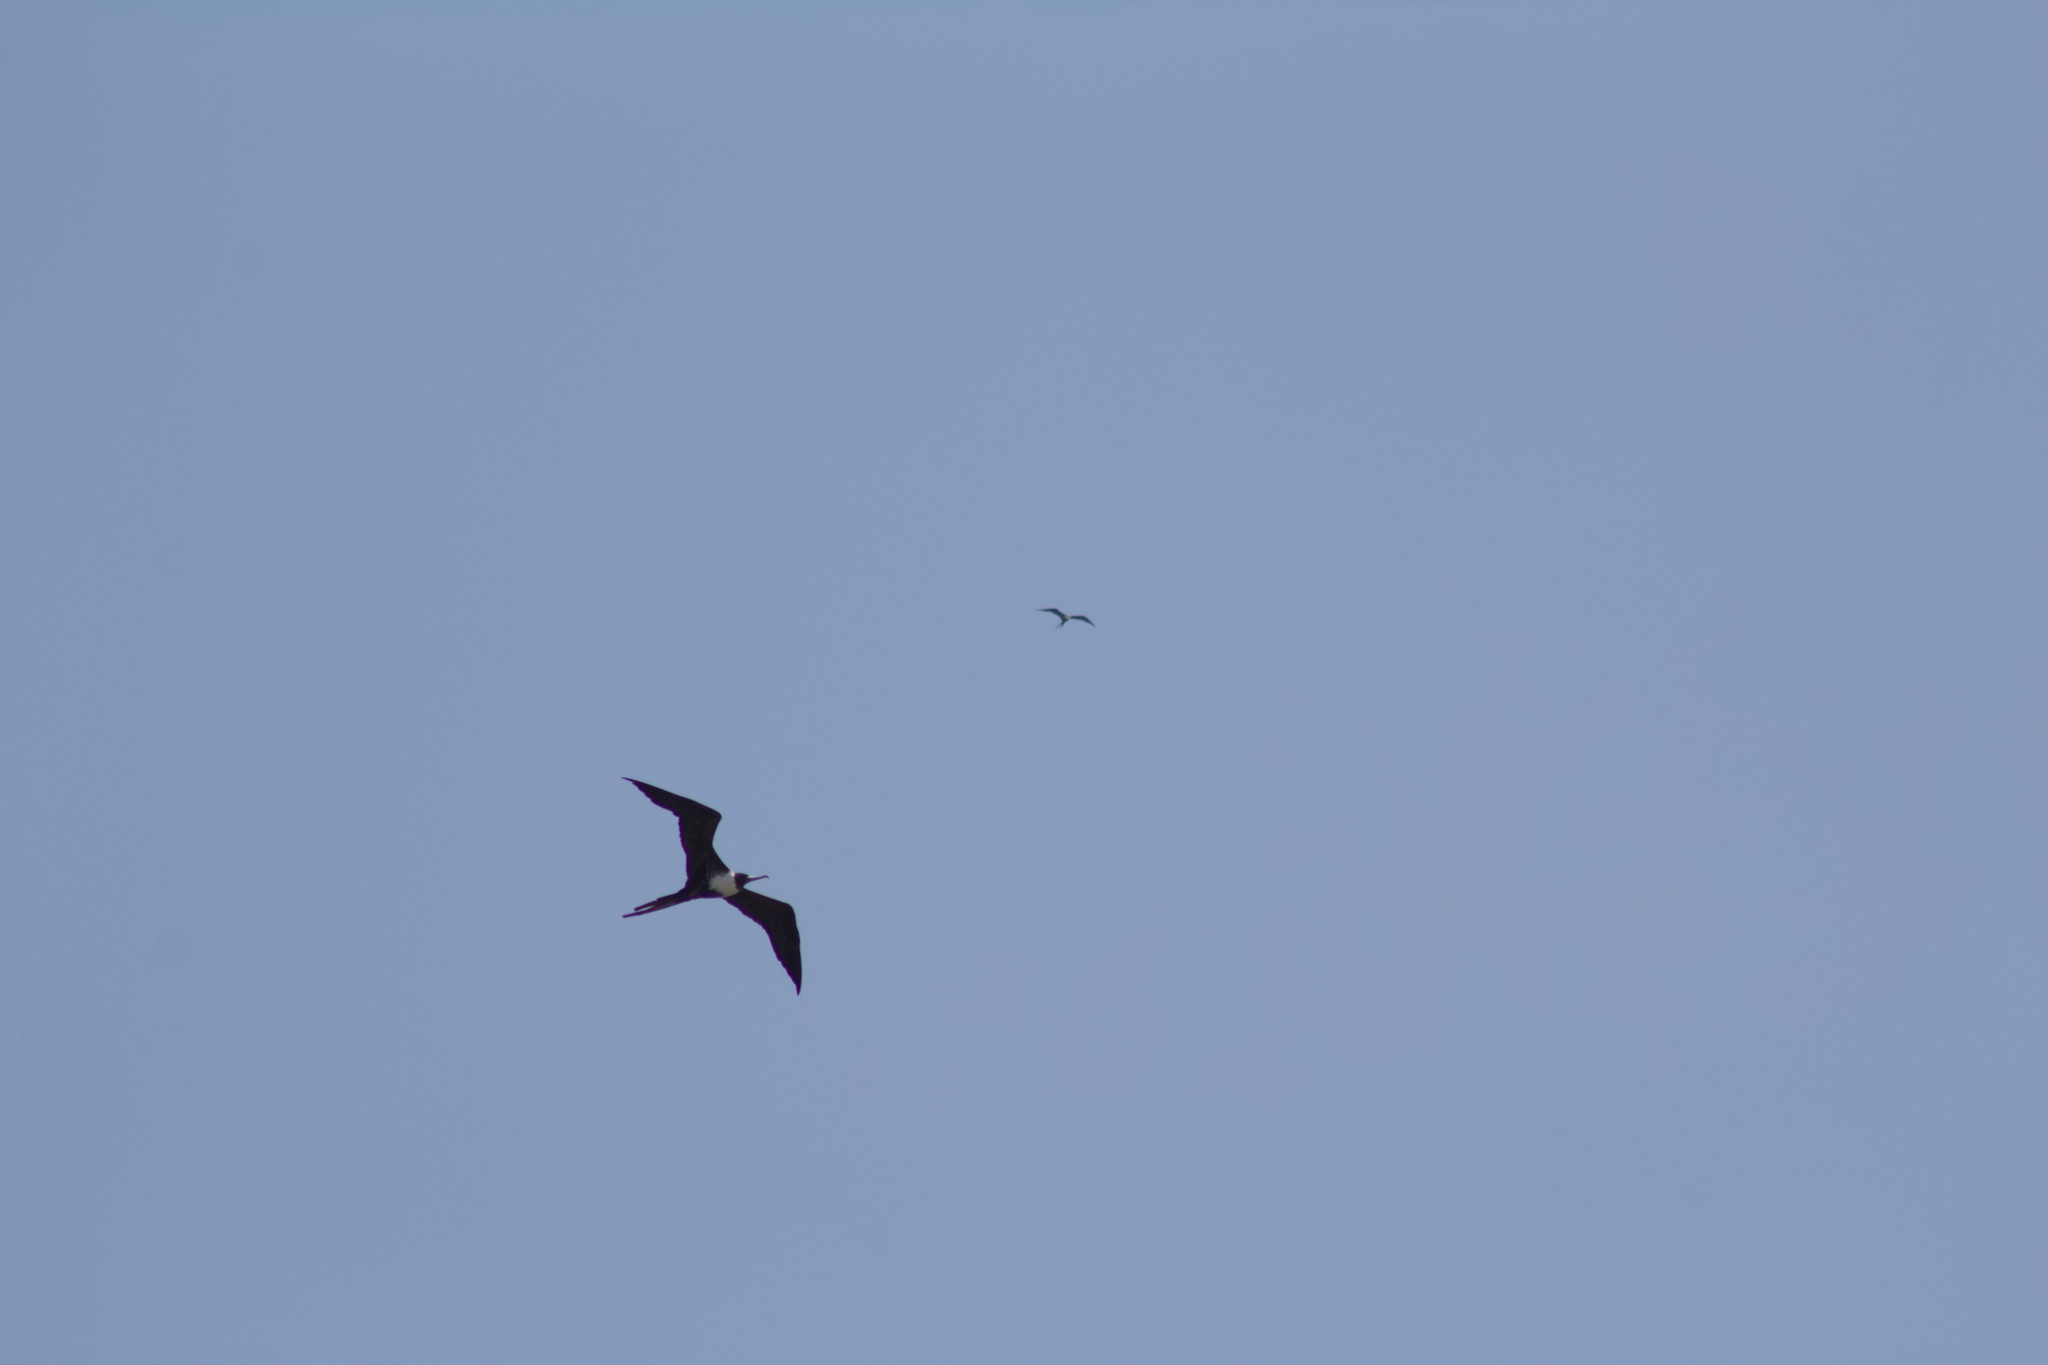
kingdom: Animalia
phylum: Chordata
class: Aves
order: Suliformes
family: Fregatidae
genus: Fregata
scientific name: Fregata magnificens
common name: Magnificent frigatebird
